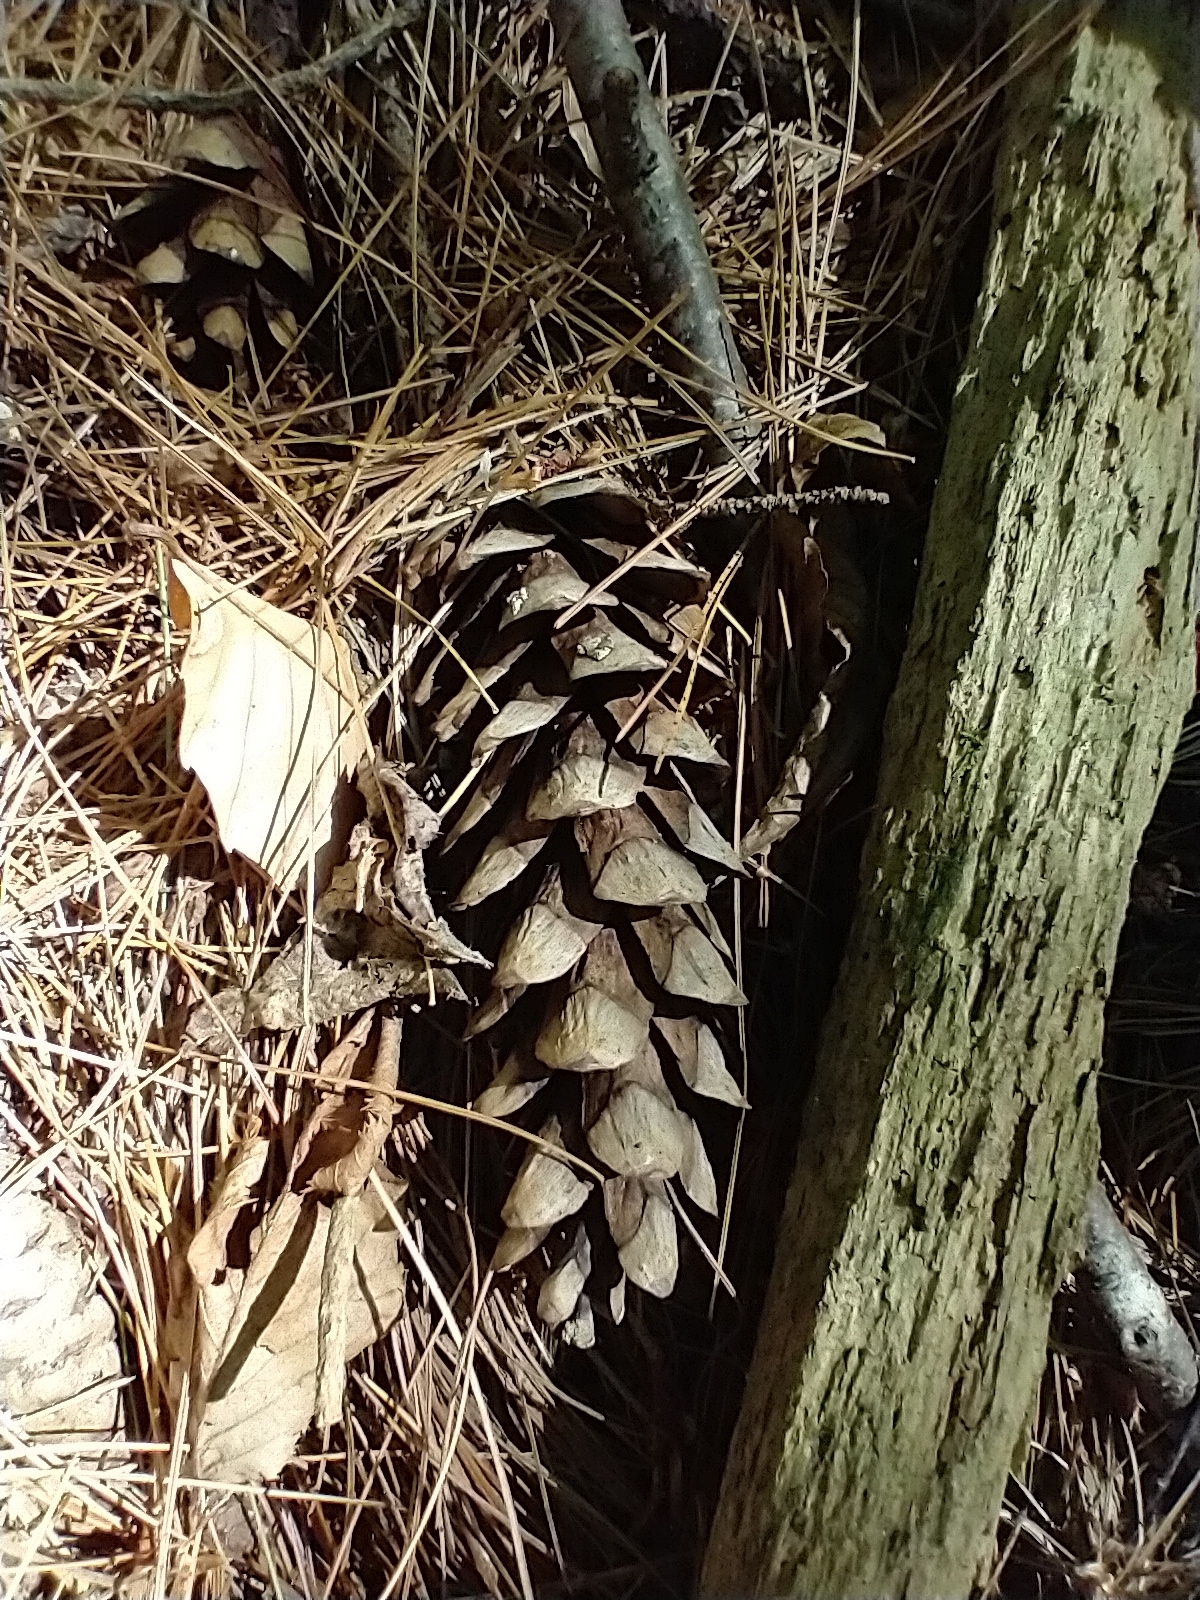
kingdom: Plantae
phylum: Tracheophyta
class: Pinopsida
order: Pinales
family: Pinaceae
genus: Pinus
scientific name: Pinus strobus
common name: Weymouth pine
